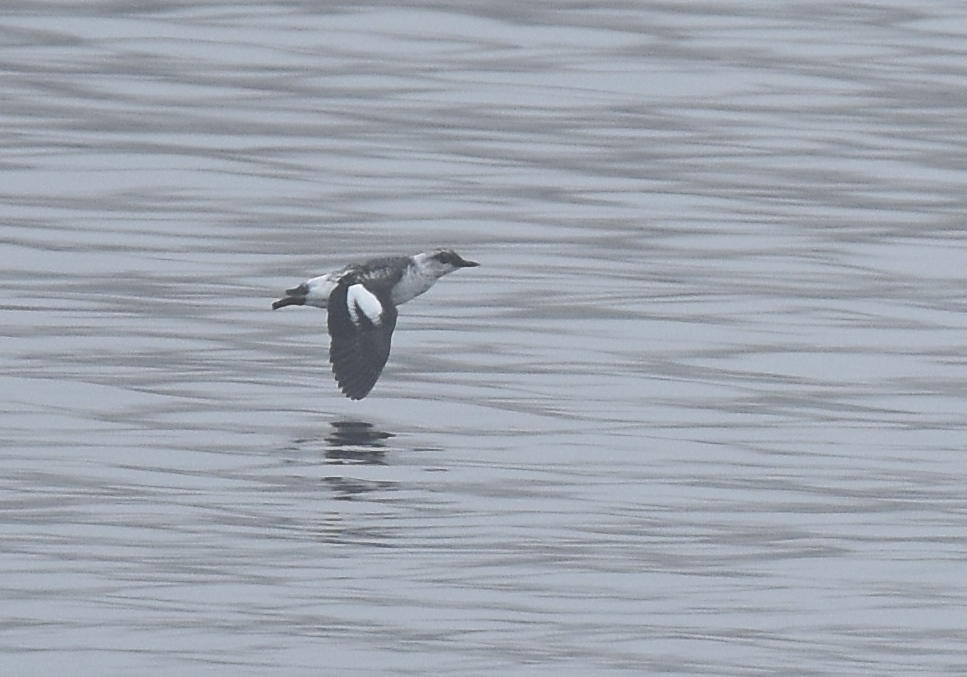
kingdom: Animalia
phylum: Chordata
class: Aves
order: Charadriiformes
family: Alcidae
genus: Cepphus
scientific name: Cepphus columba
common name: Pigeon guillemot
